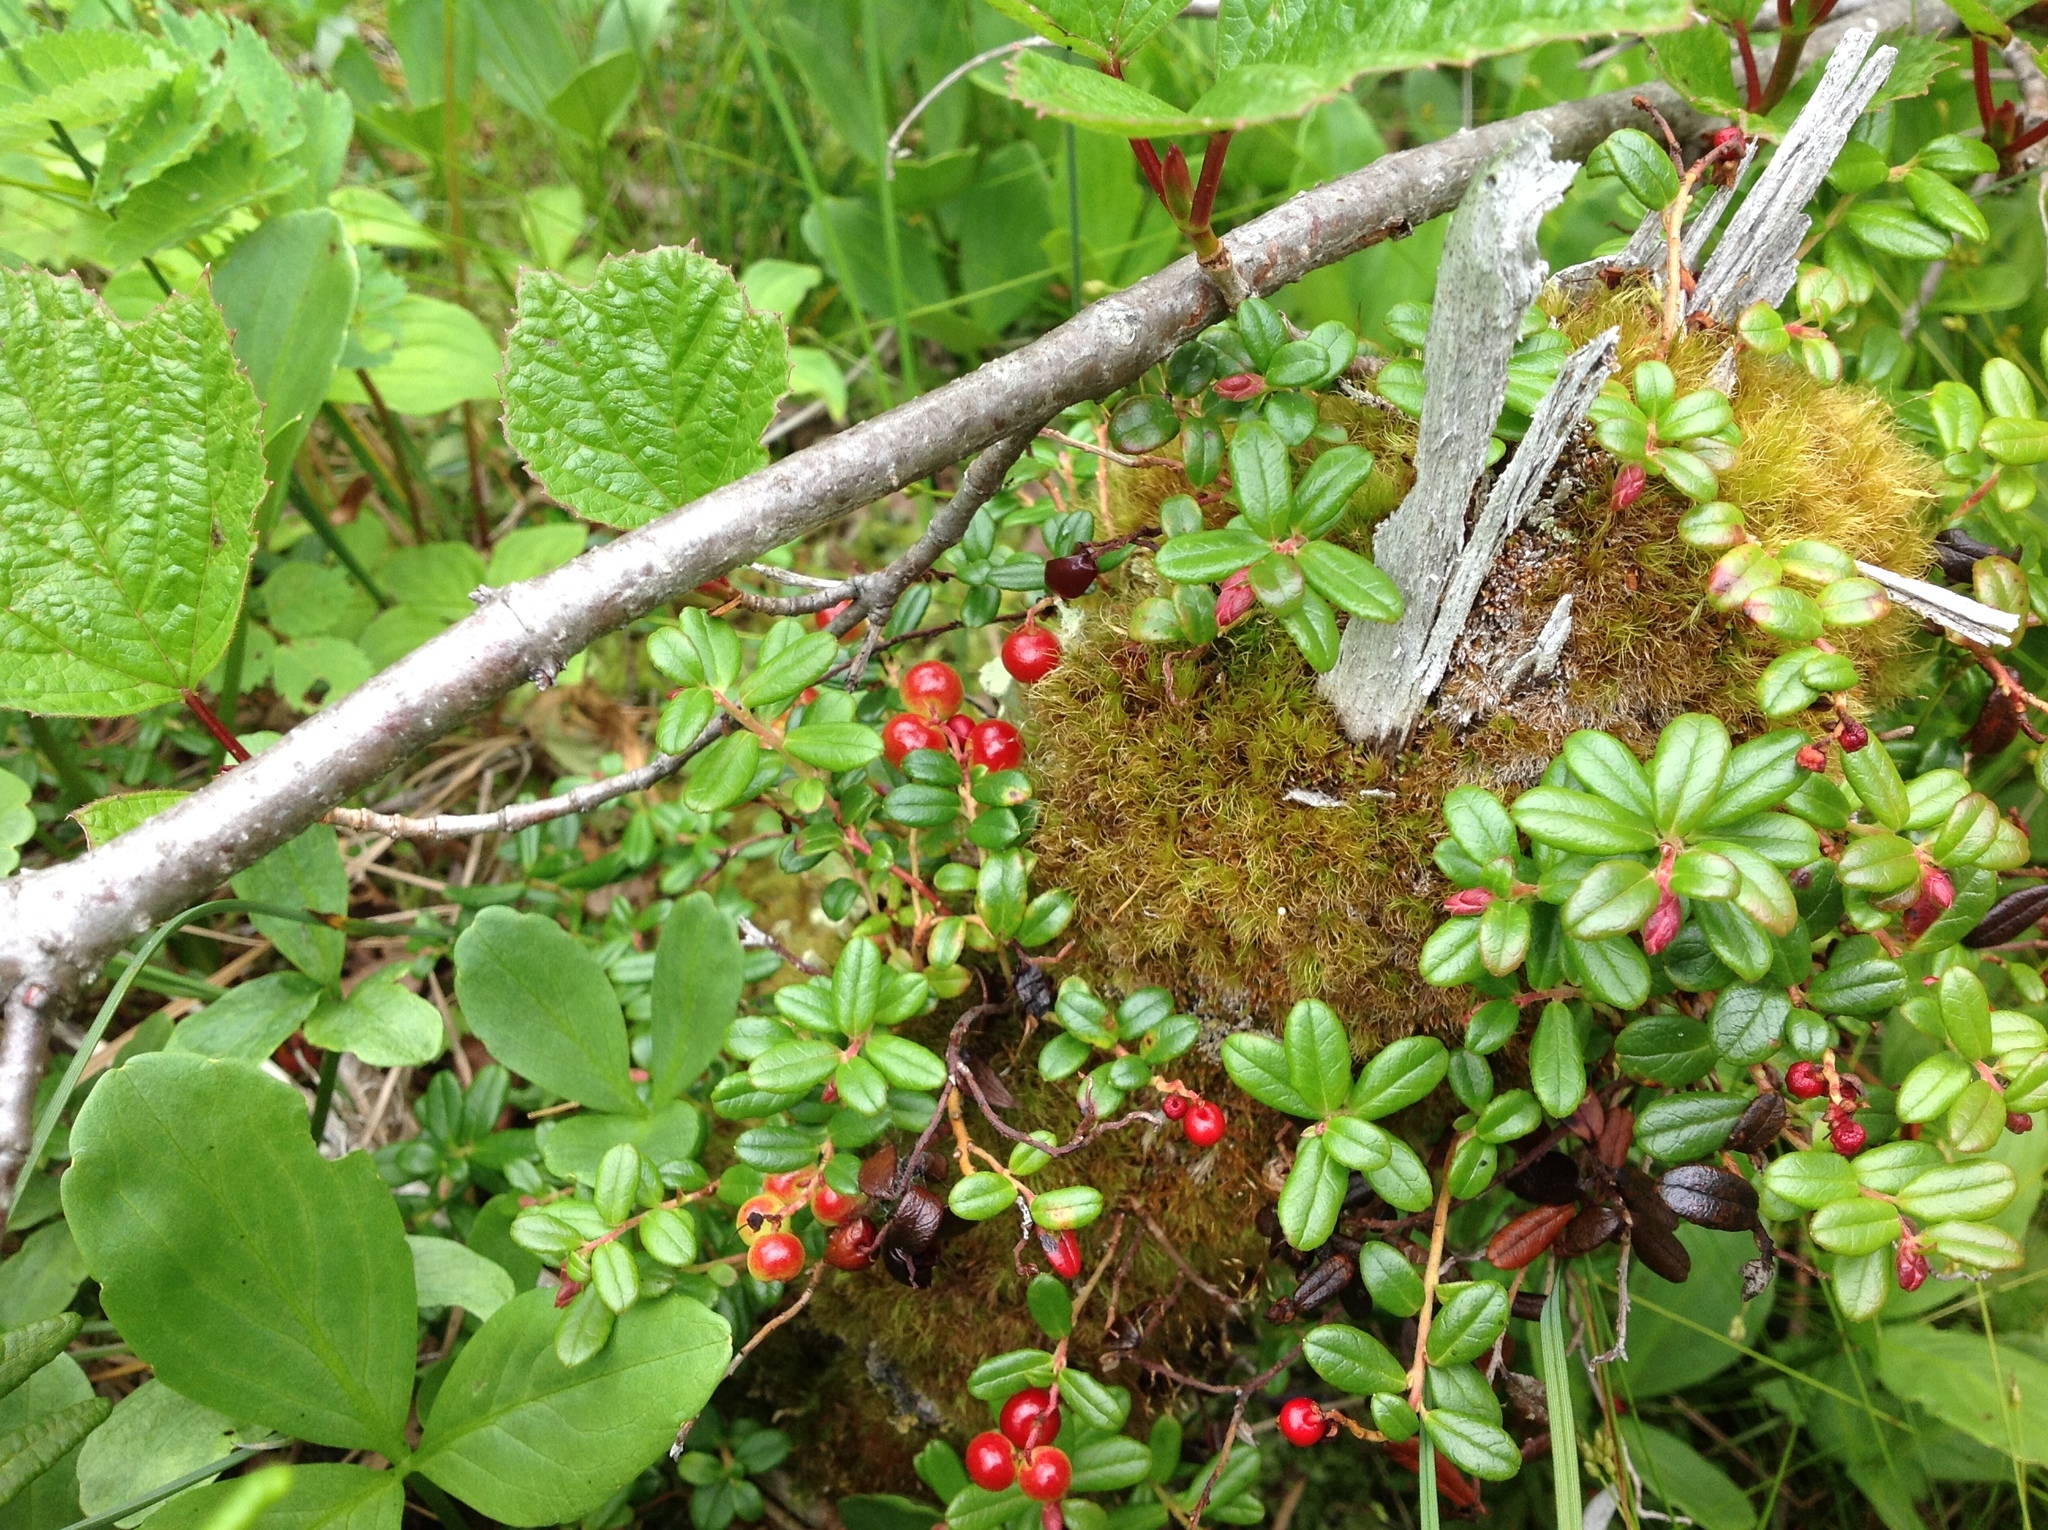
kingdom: Plantae
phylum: Tracheophyta
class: Magnoliopsida
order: Ericales
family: Ericaceae
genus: Vaccinium
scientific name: Vaccinium vitis-idaea
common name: Cowberry
